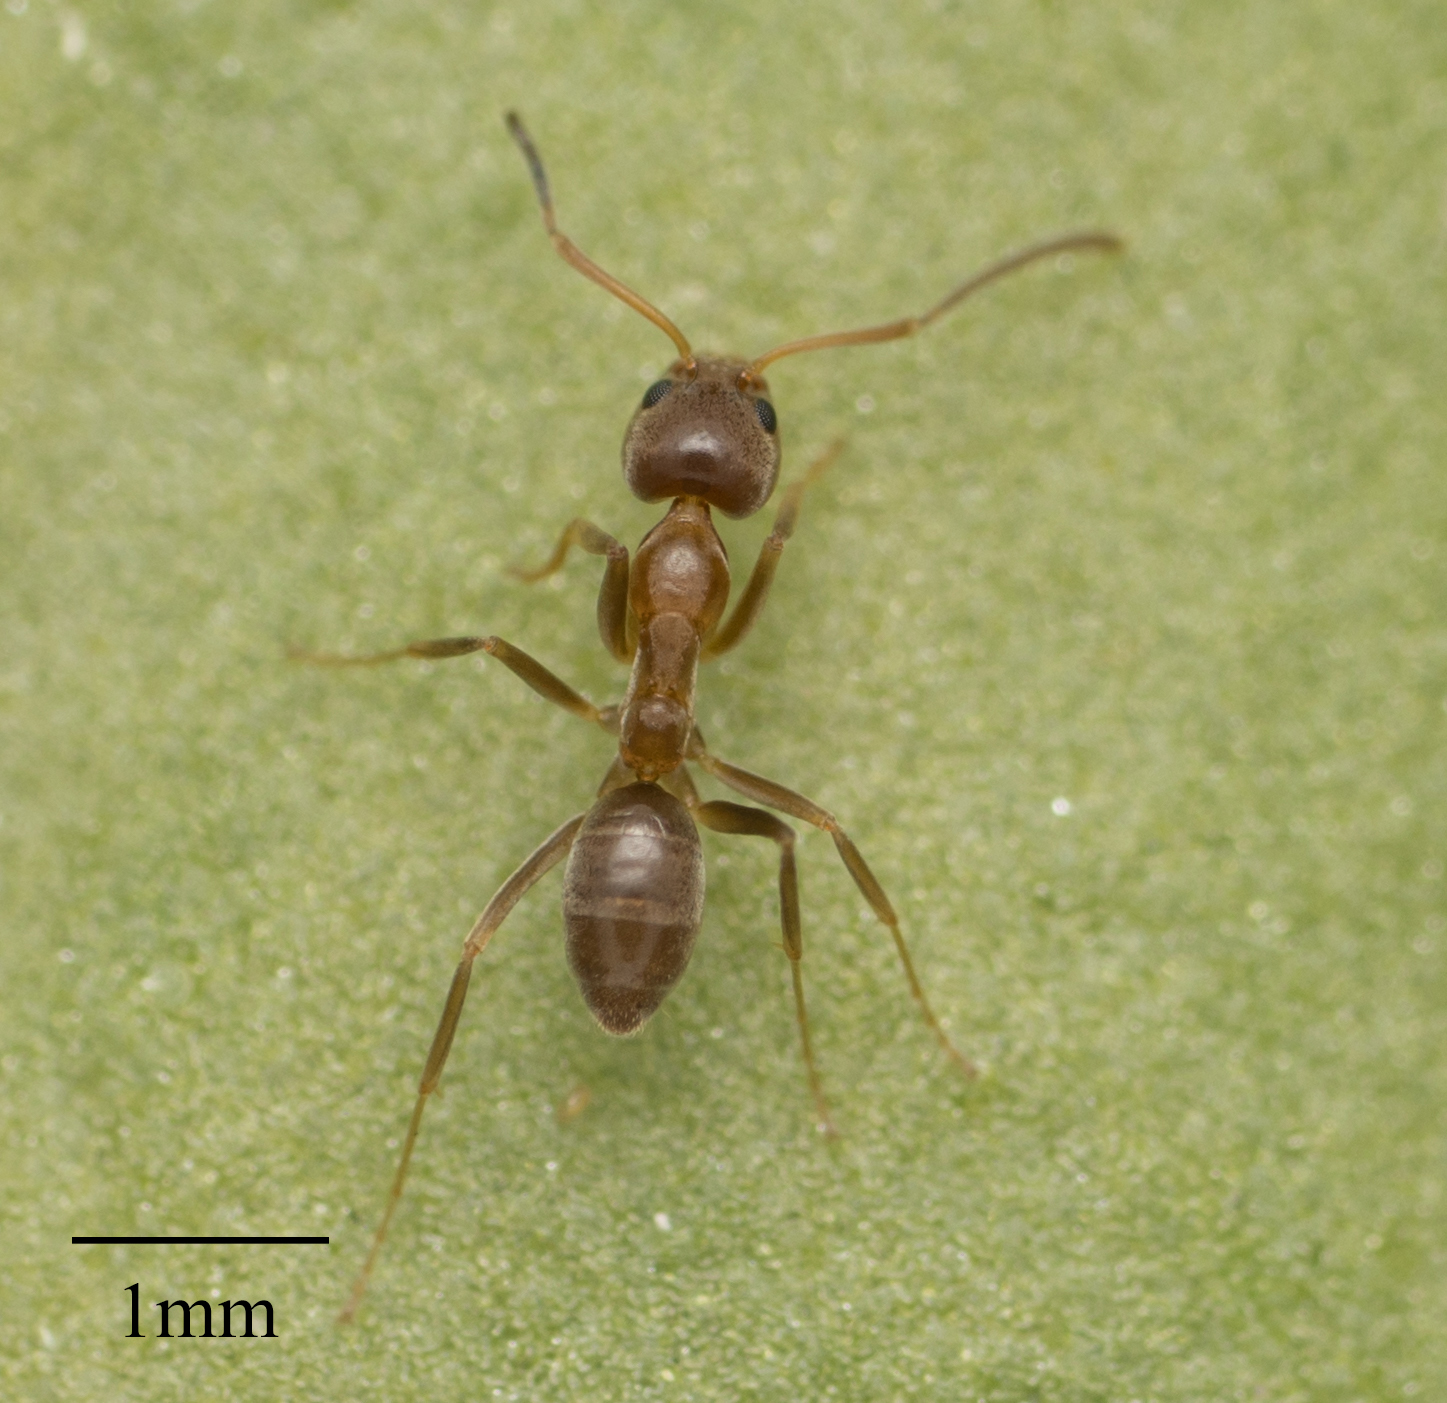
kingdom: Animalia
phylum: Arthropoda
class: Insecta
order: Hymenoptera
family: Formicidae
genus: Linepithema
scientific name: Linepithema humile
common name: Argentine ant
